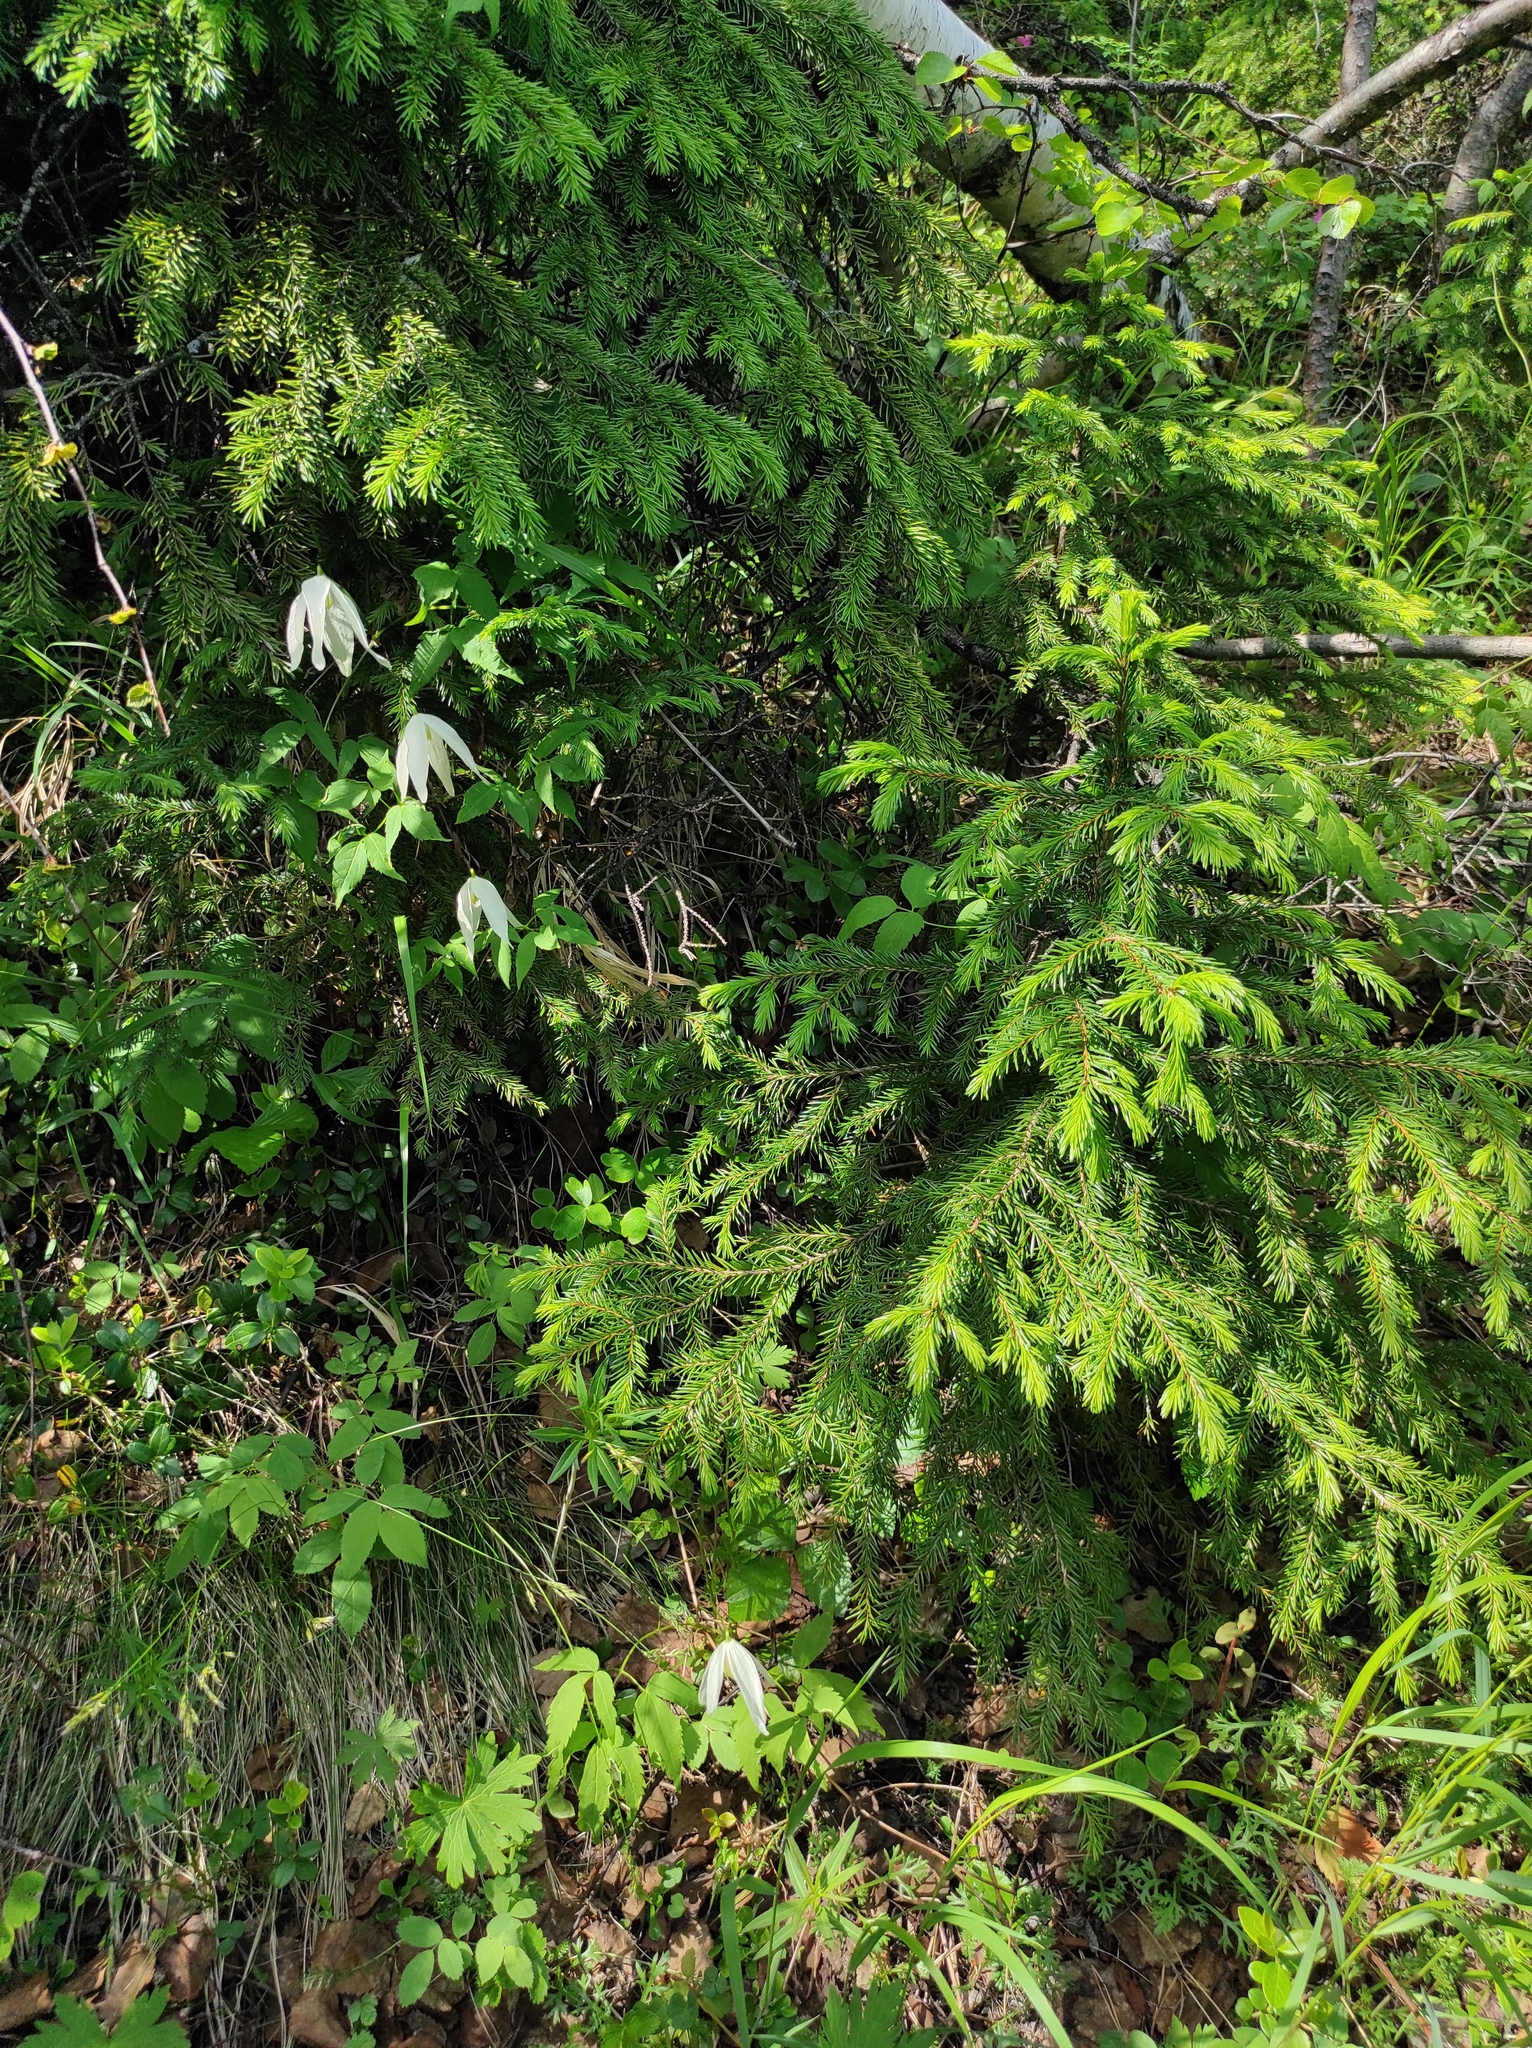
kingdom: Plantae
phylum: Tracheophyta
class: Pinopsida
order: Pinales
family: Pinaceae
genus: Picea
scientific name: Picea obovata
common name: Siberian spruce
